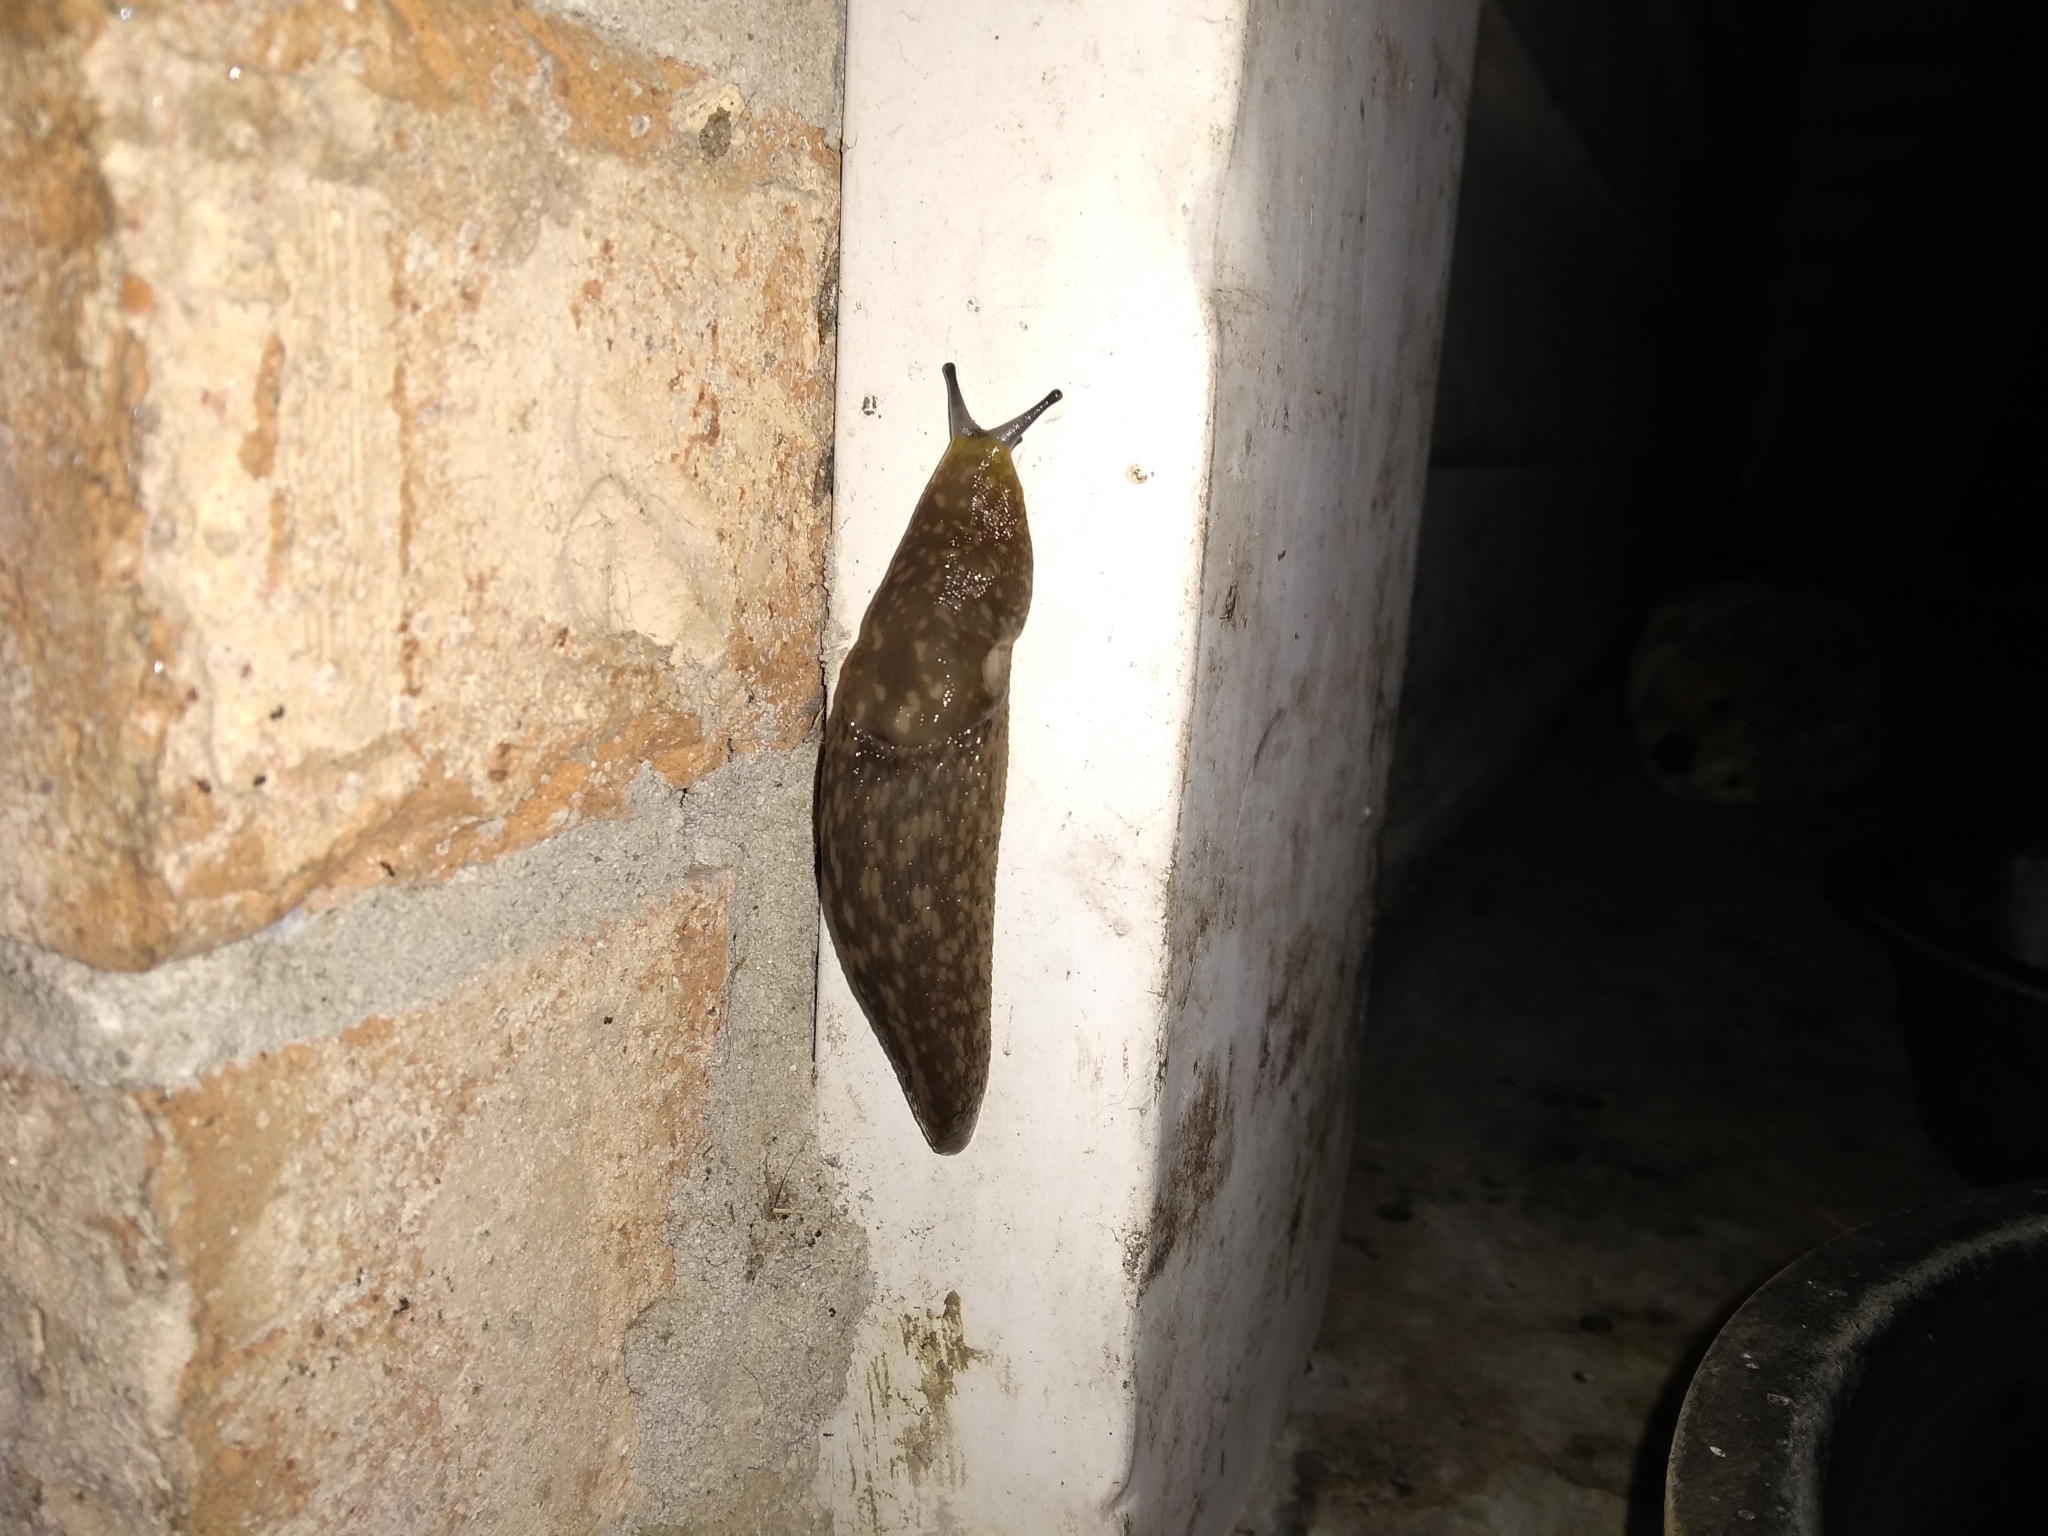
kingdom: Animalia
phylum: Mollusca
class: Gastropoda
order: Stylommatophora
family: Limacidae
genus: Limacus
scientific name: Limacus flavus
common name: Yellow gardenslug
